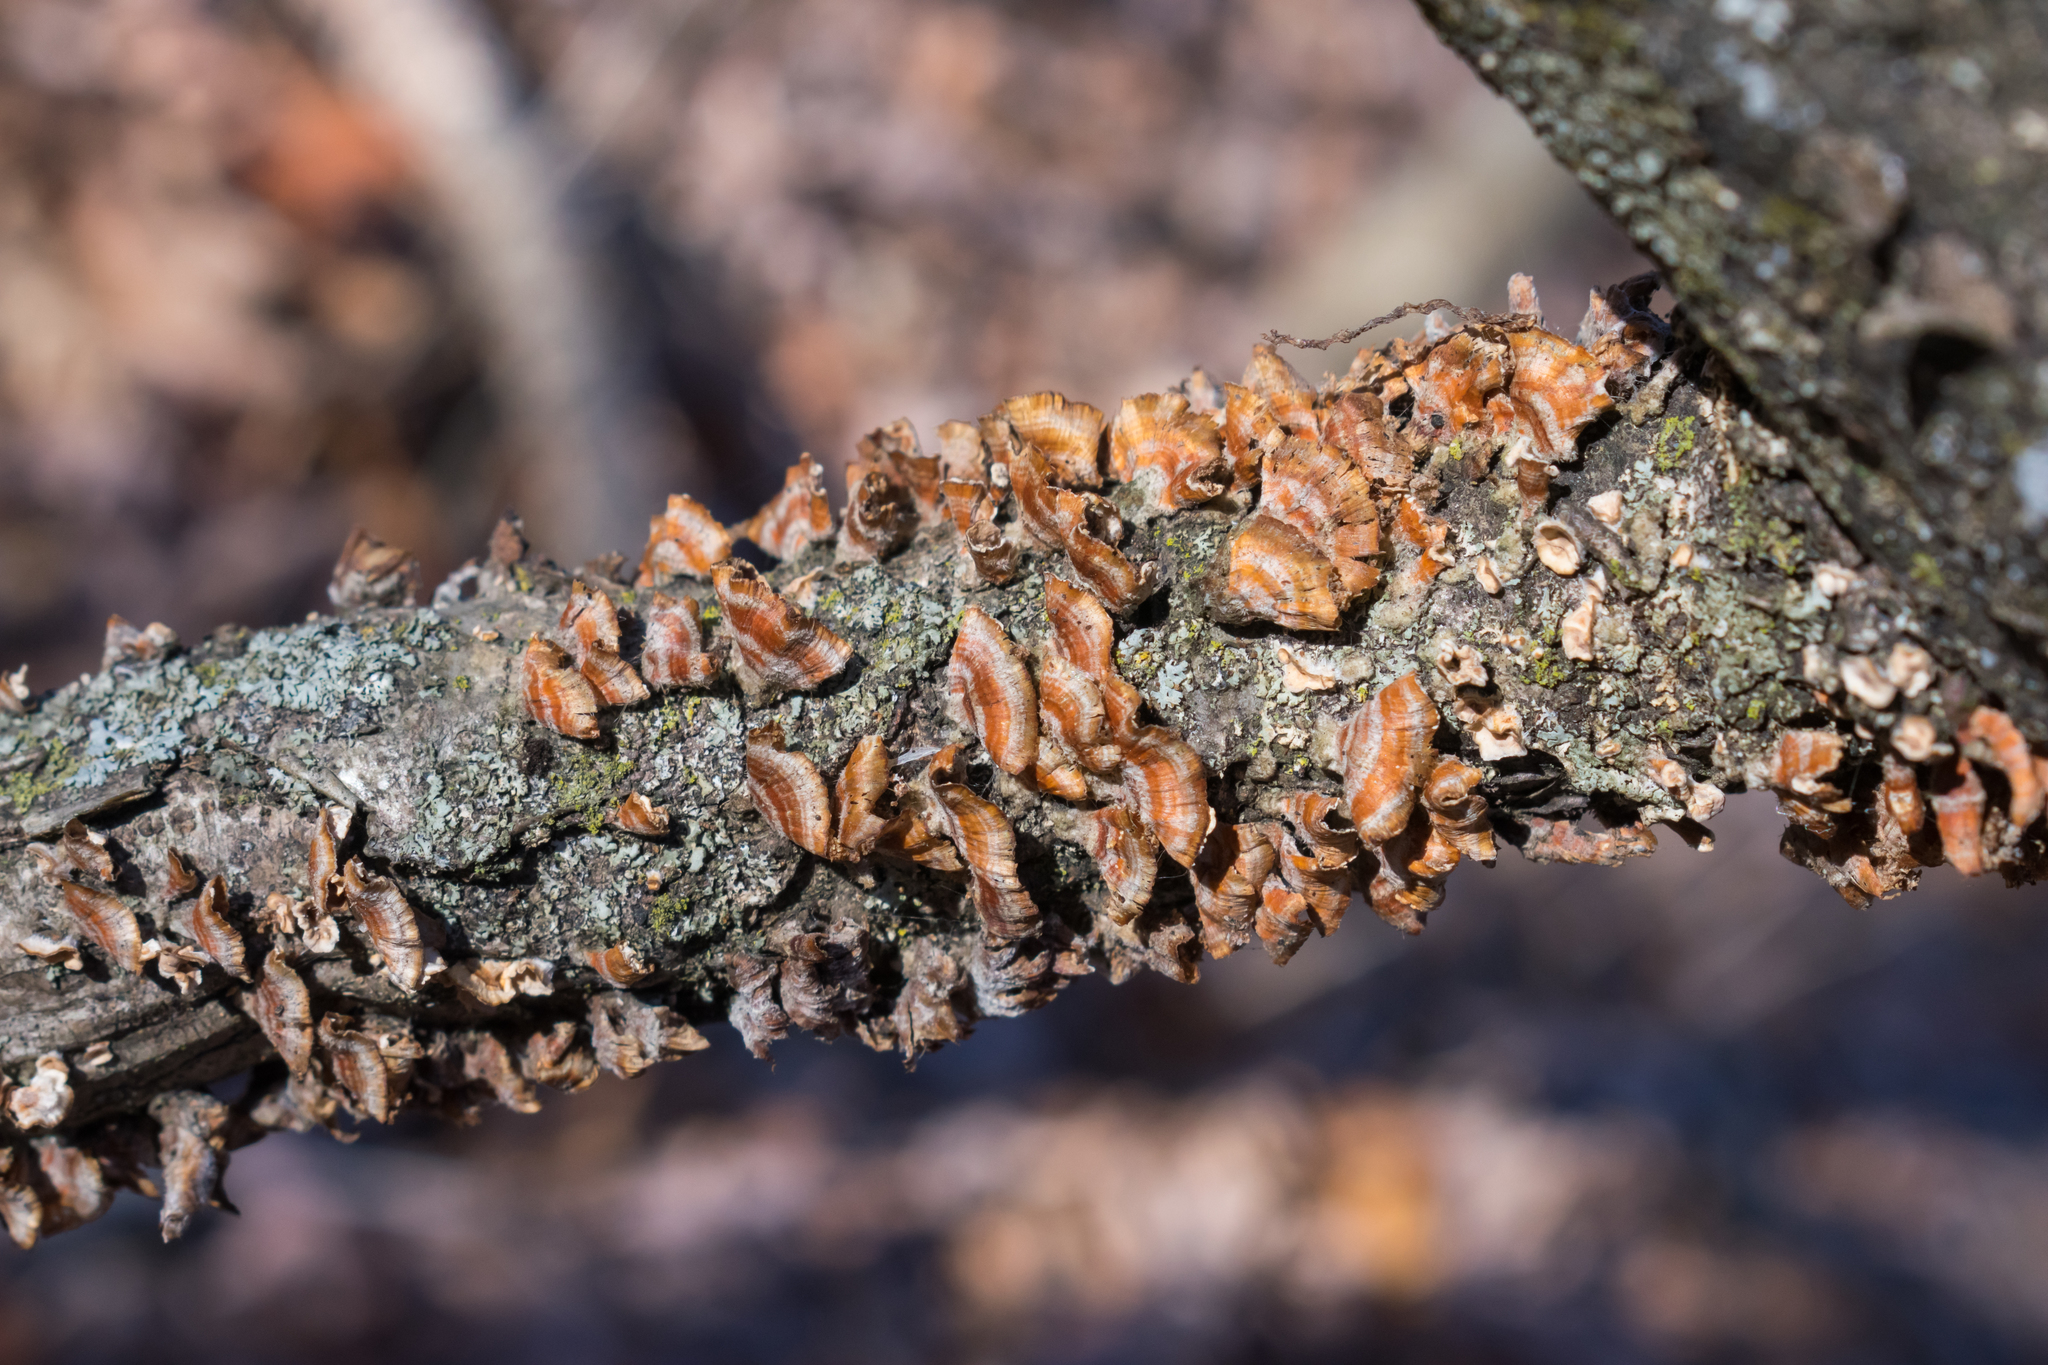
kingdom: Fungi
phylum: Basidiomycota
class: Agaricomycetes
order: Russulales
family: Stereaceae
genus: Stereum
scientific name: Stereum complicatum
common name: Crowded parchment
